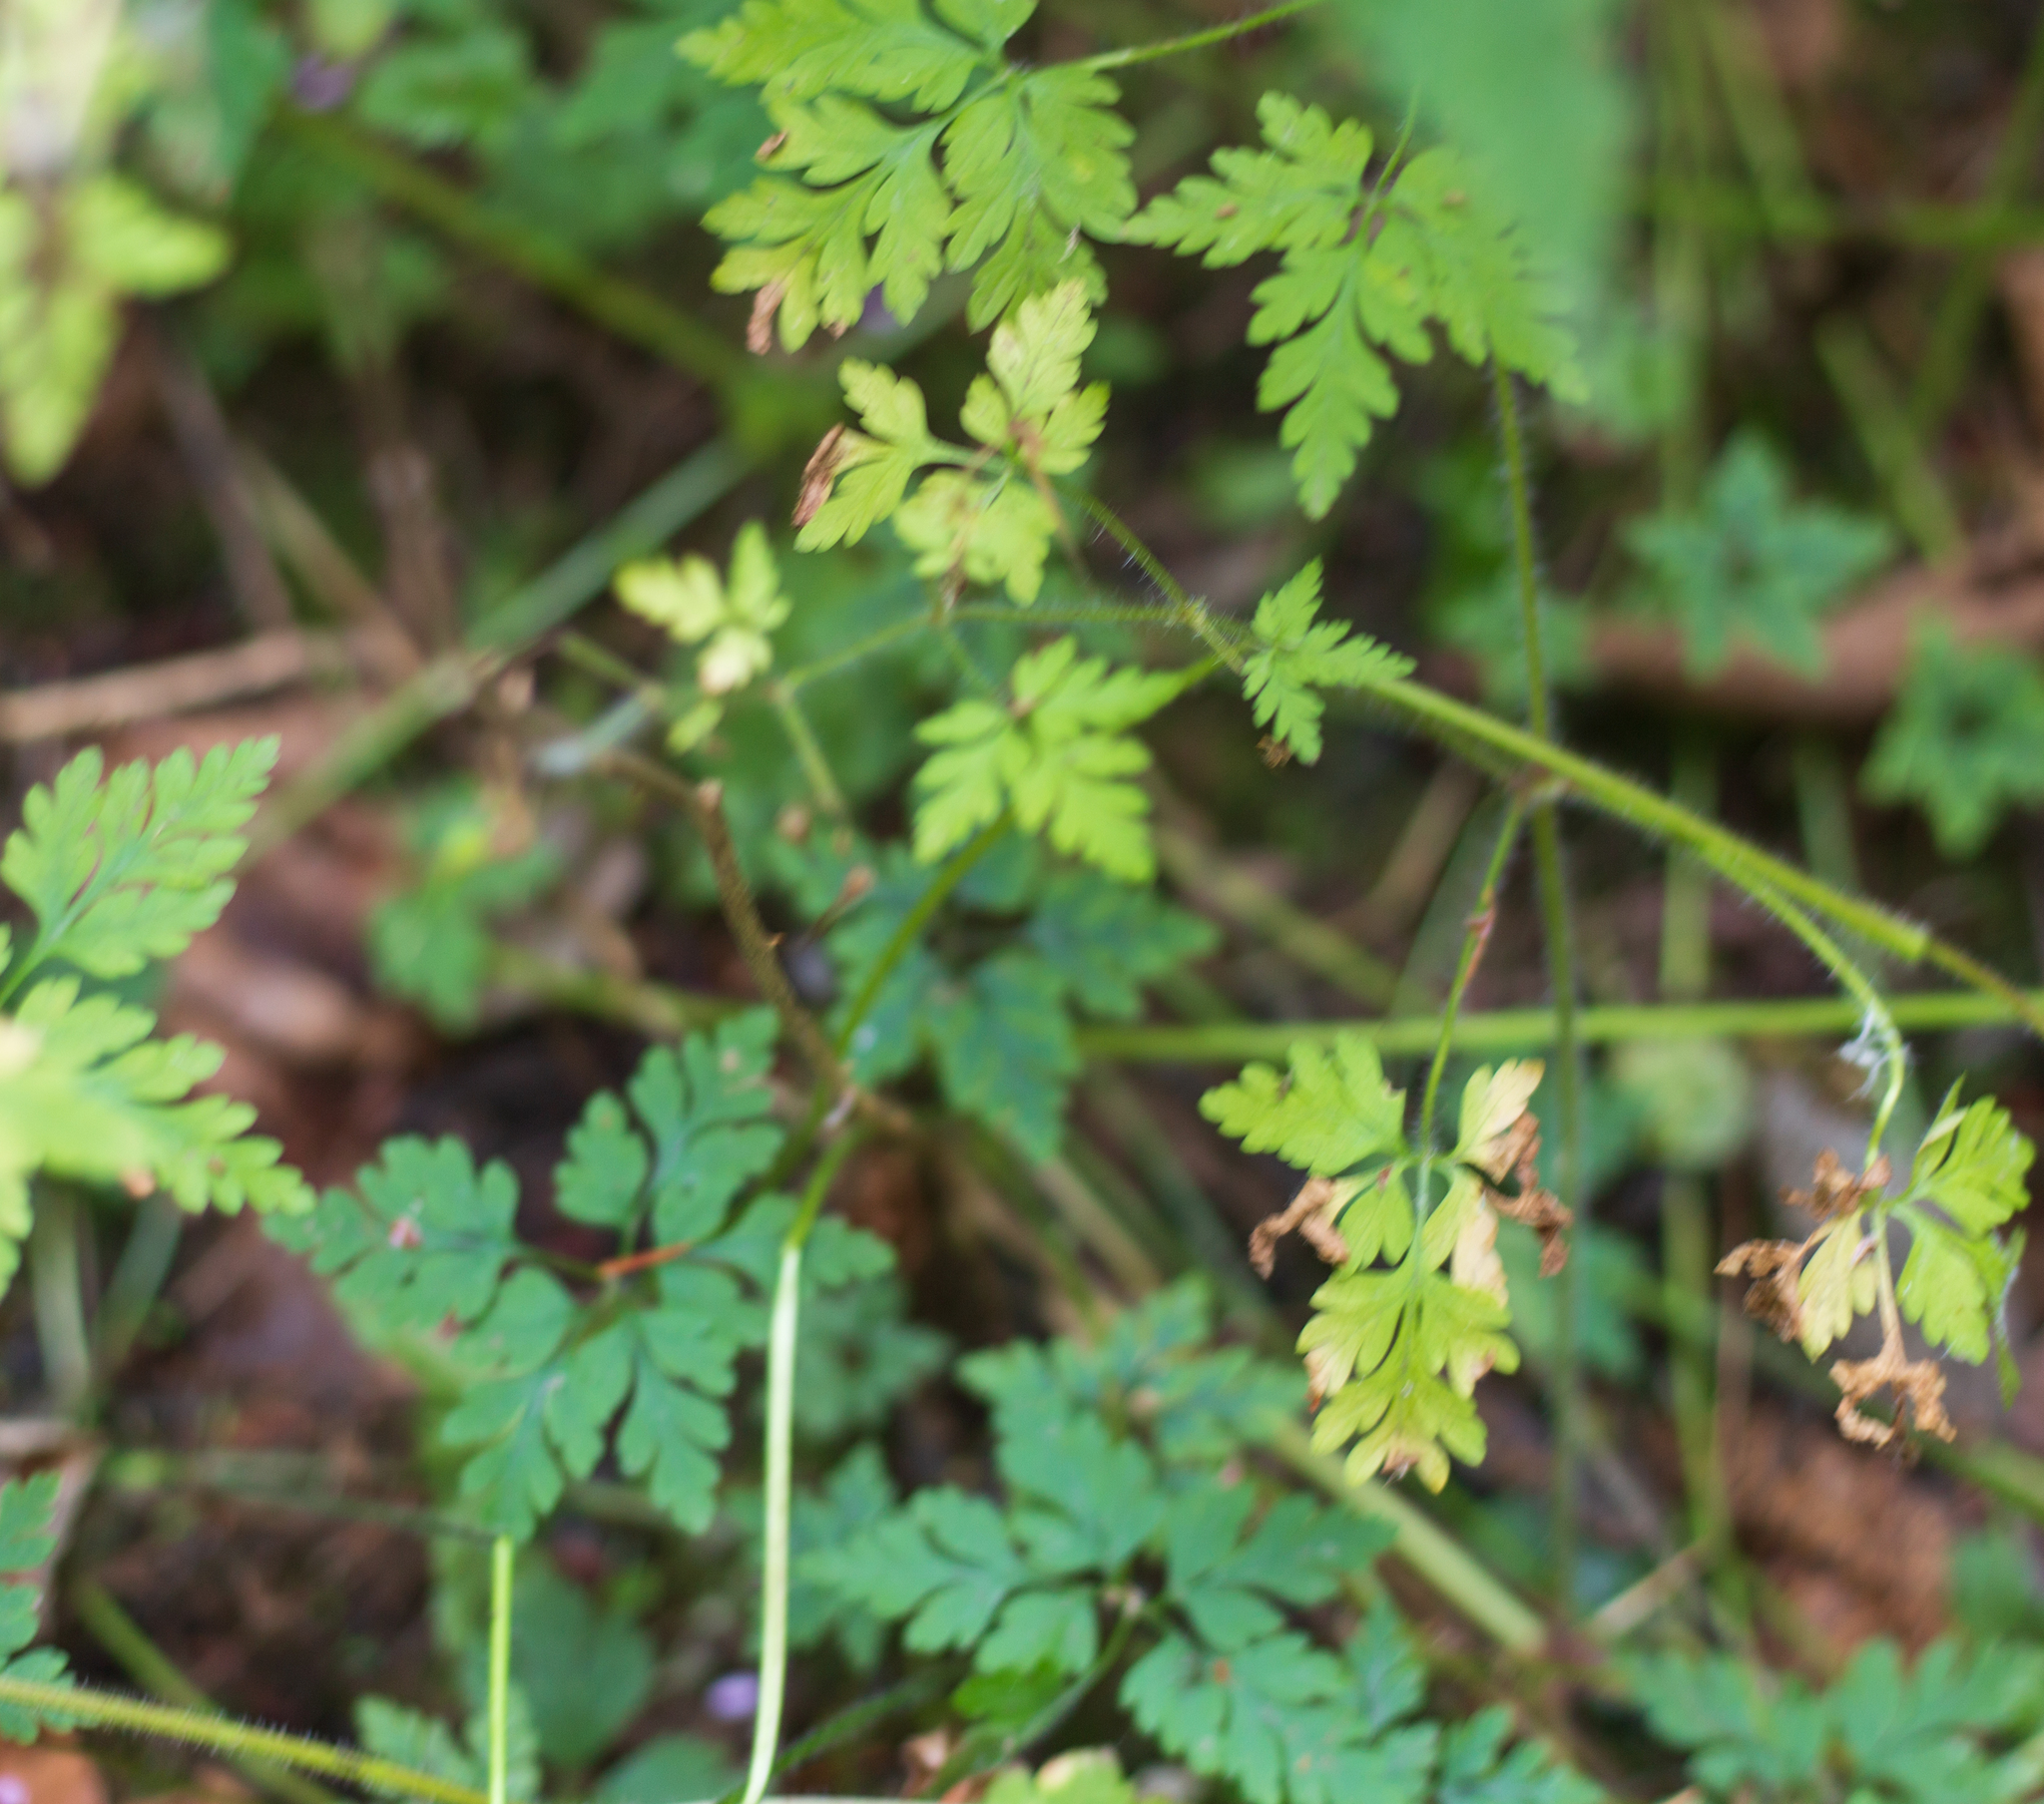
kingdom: Plantae
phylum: Tracheophyta
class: Magnoliopsida
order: Geraniales
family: Geraniaceae
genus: Geranium
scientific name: Geranium robertianum
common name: Herb-robert
